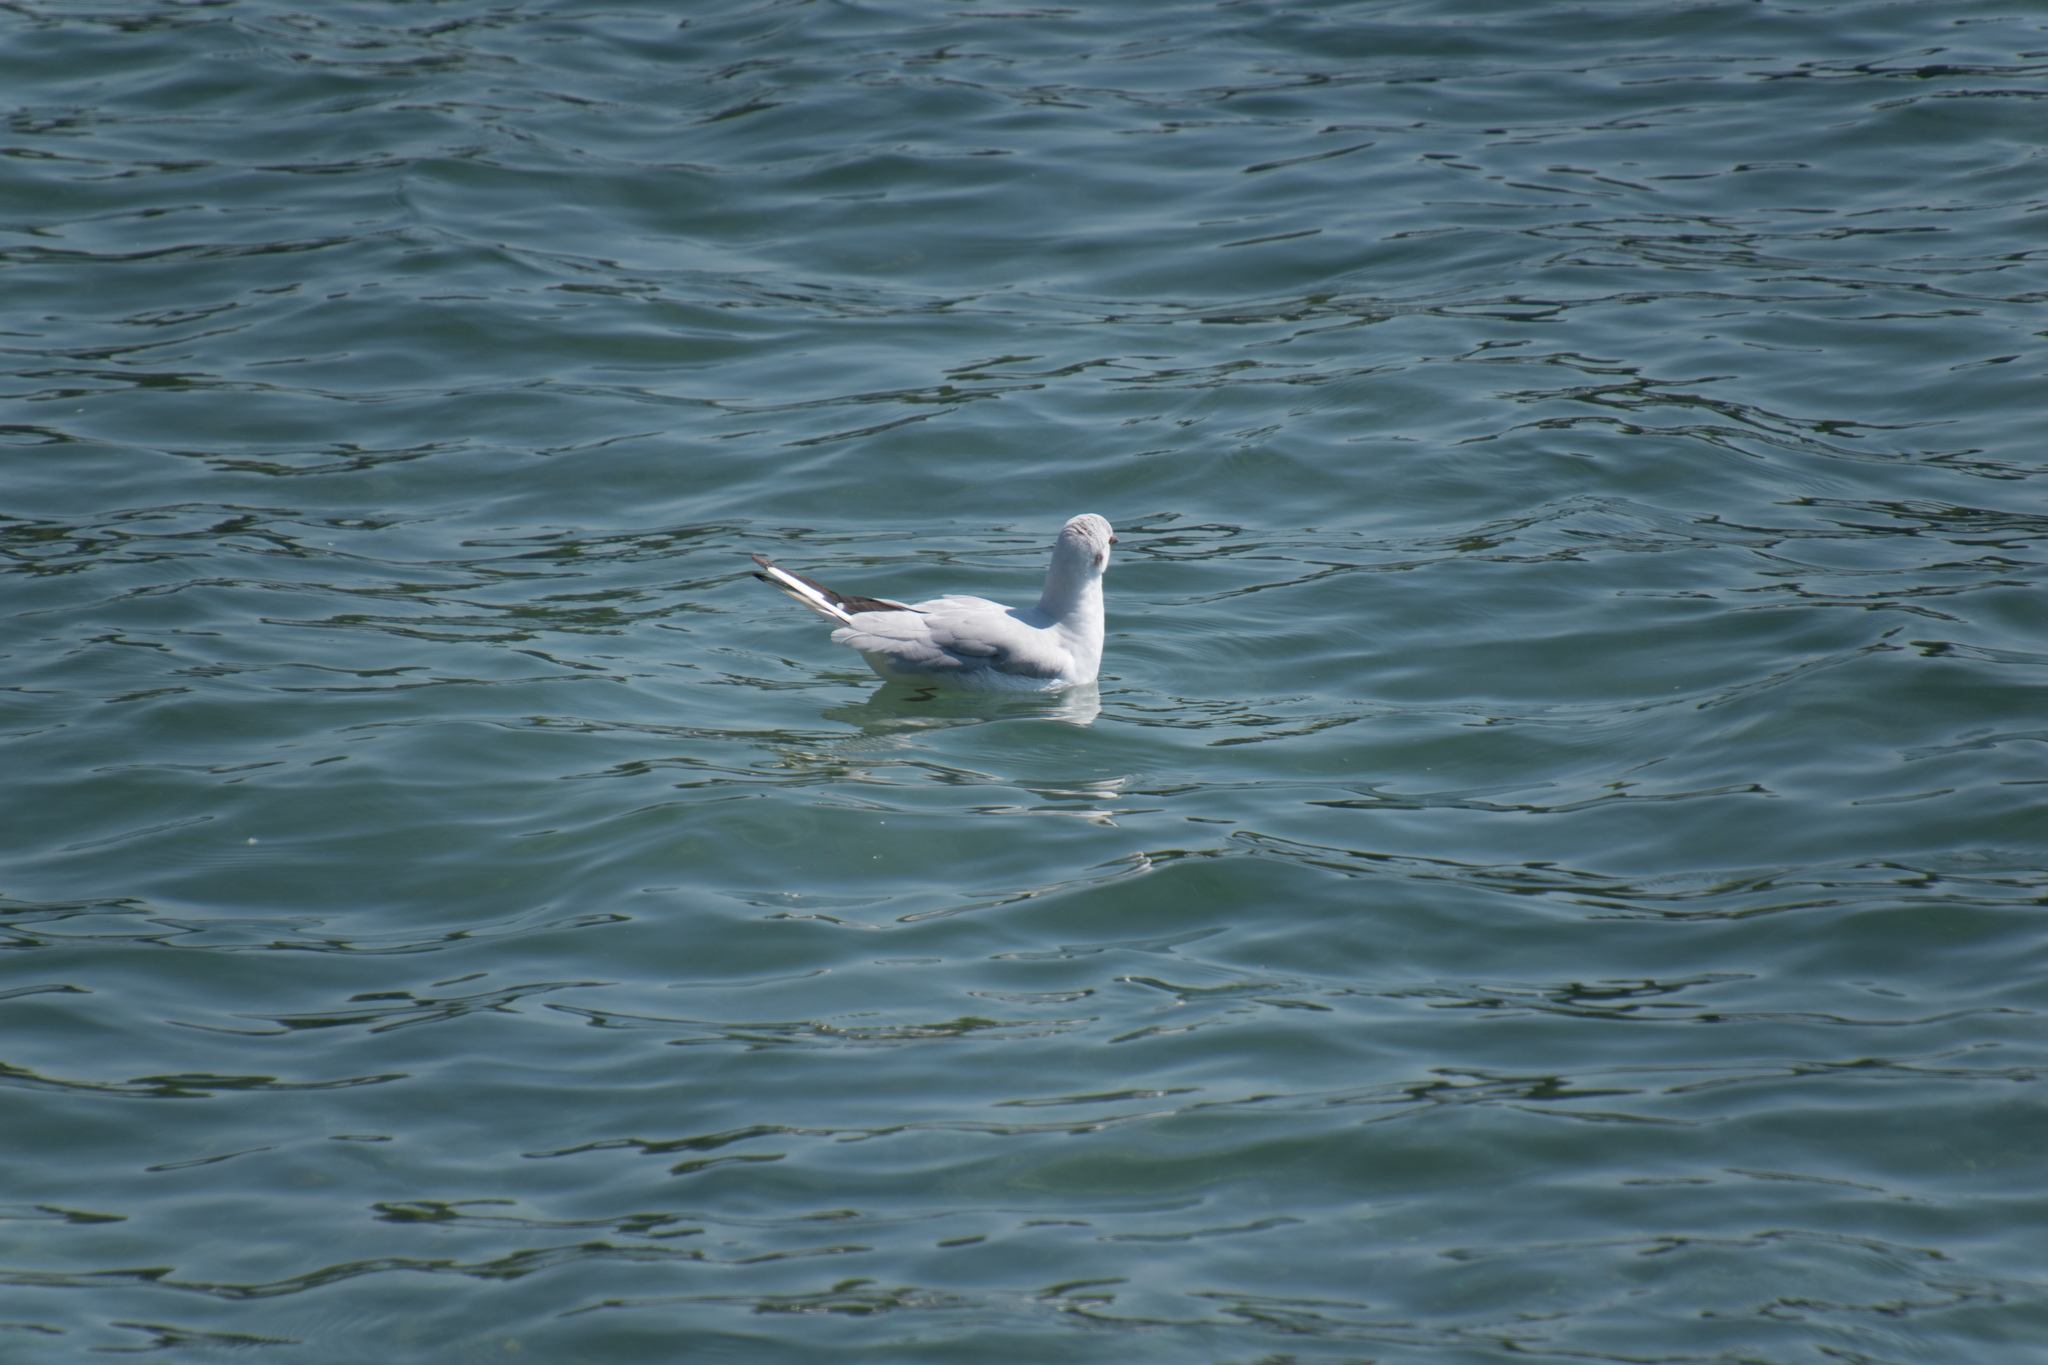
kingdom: Animalia
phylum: Chordata
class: Aves
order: Charadriiformes
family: Laridae
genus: Chroicocephalus
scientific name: Chroicocephalus ridibundus
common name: Black-headed gull
